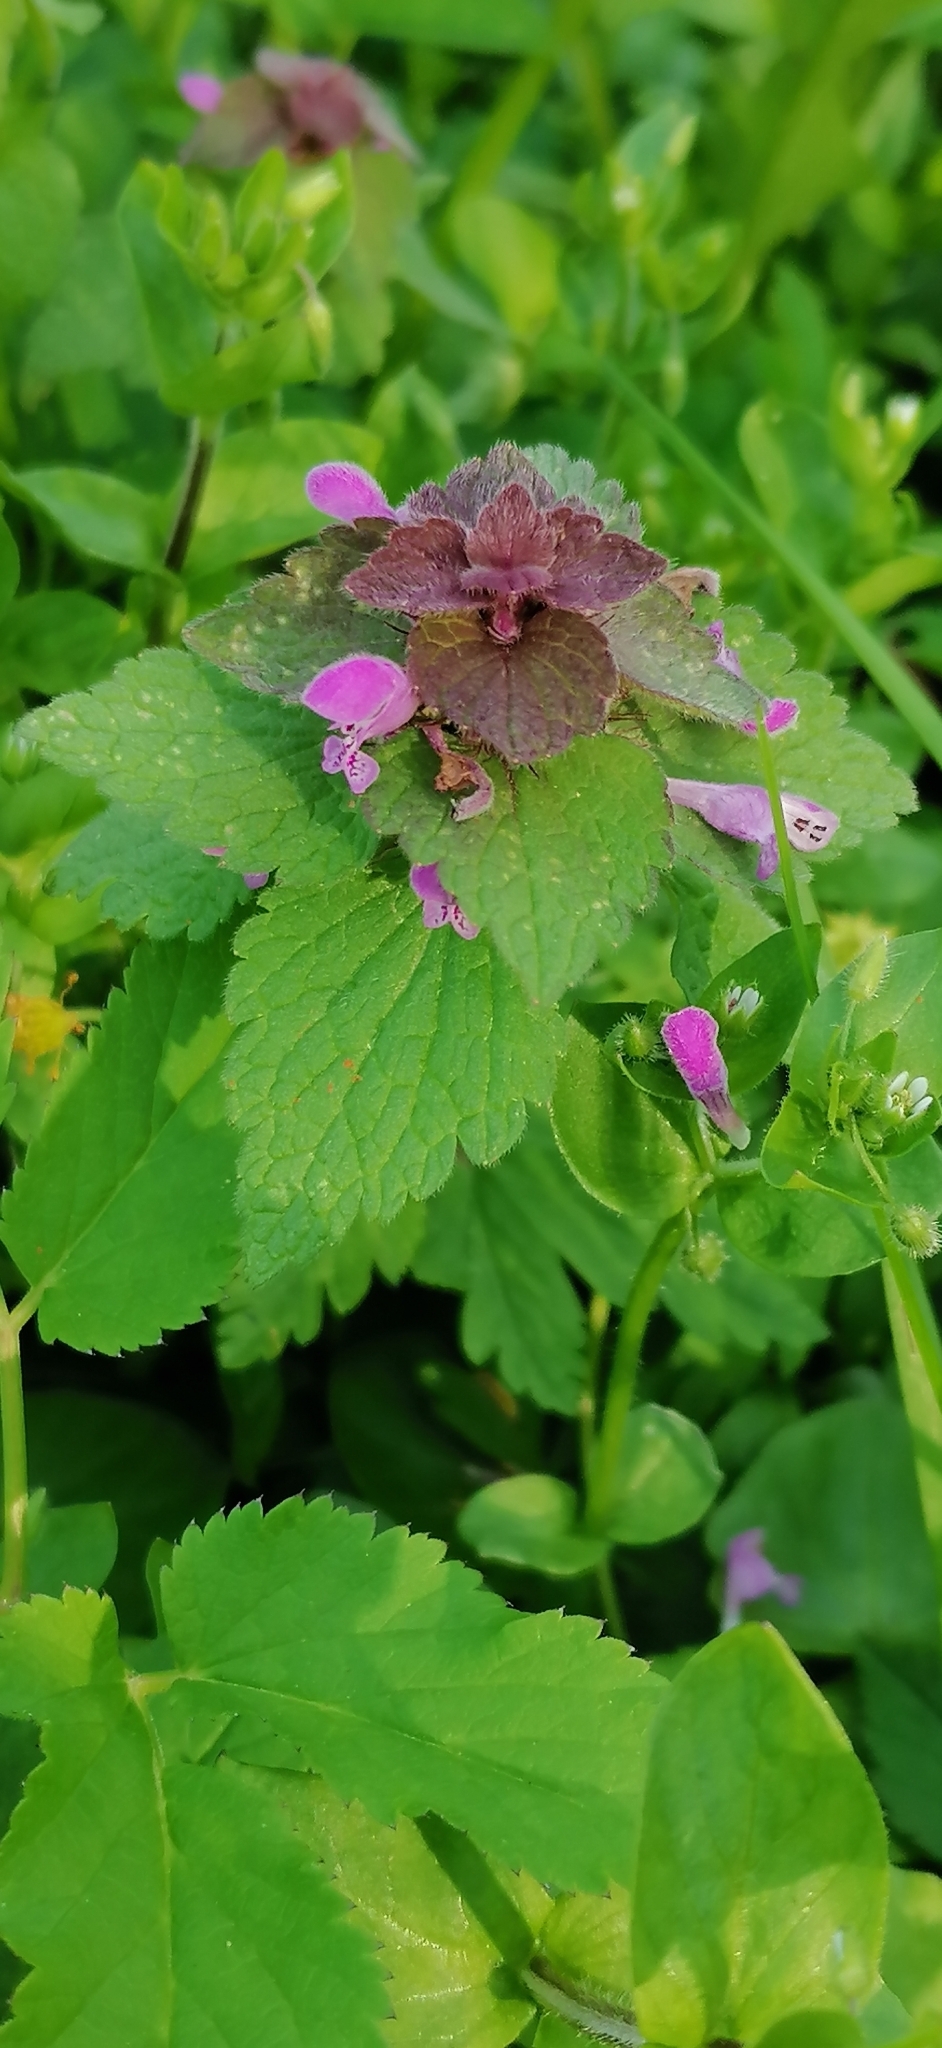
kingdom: Plantae
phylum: Tracheophyta
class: Magnoliopsida
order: Lamiales
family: Lamiaceae
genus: Lamium
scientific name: Lamium maculatum
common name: Spotted dead-nettle
